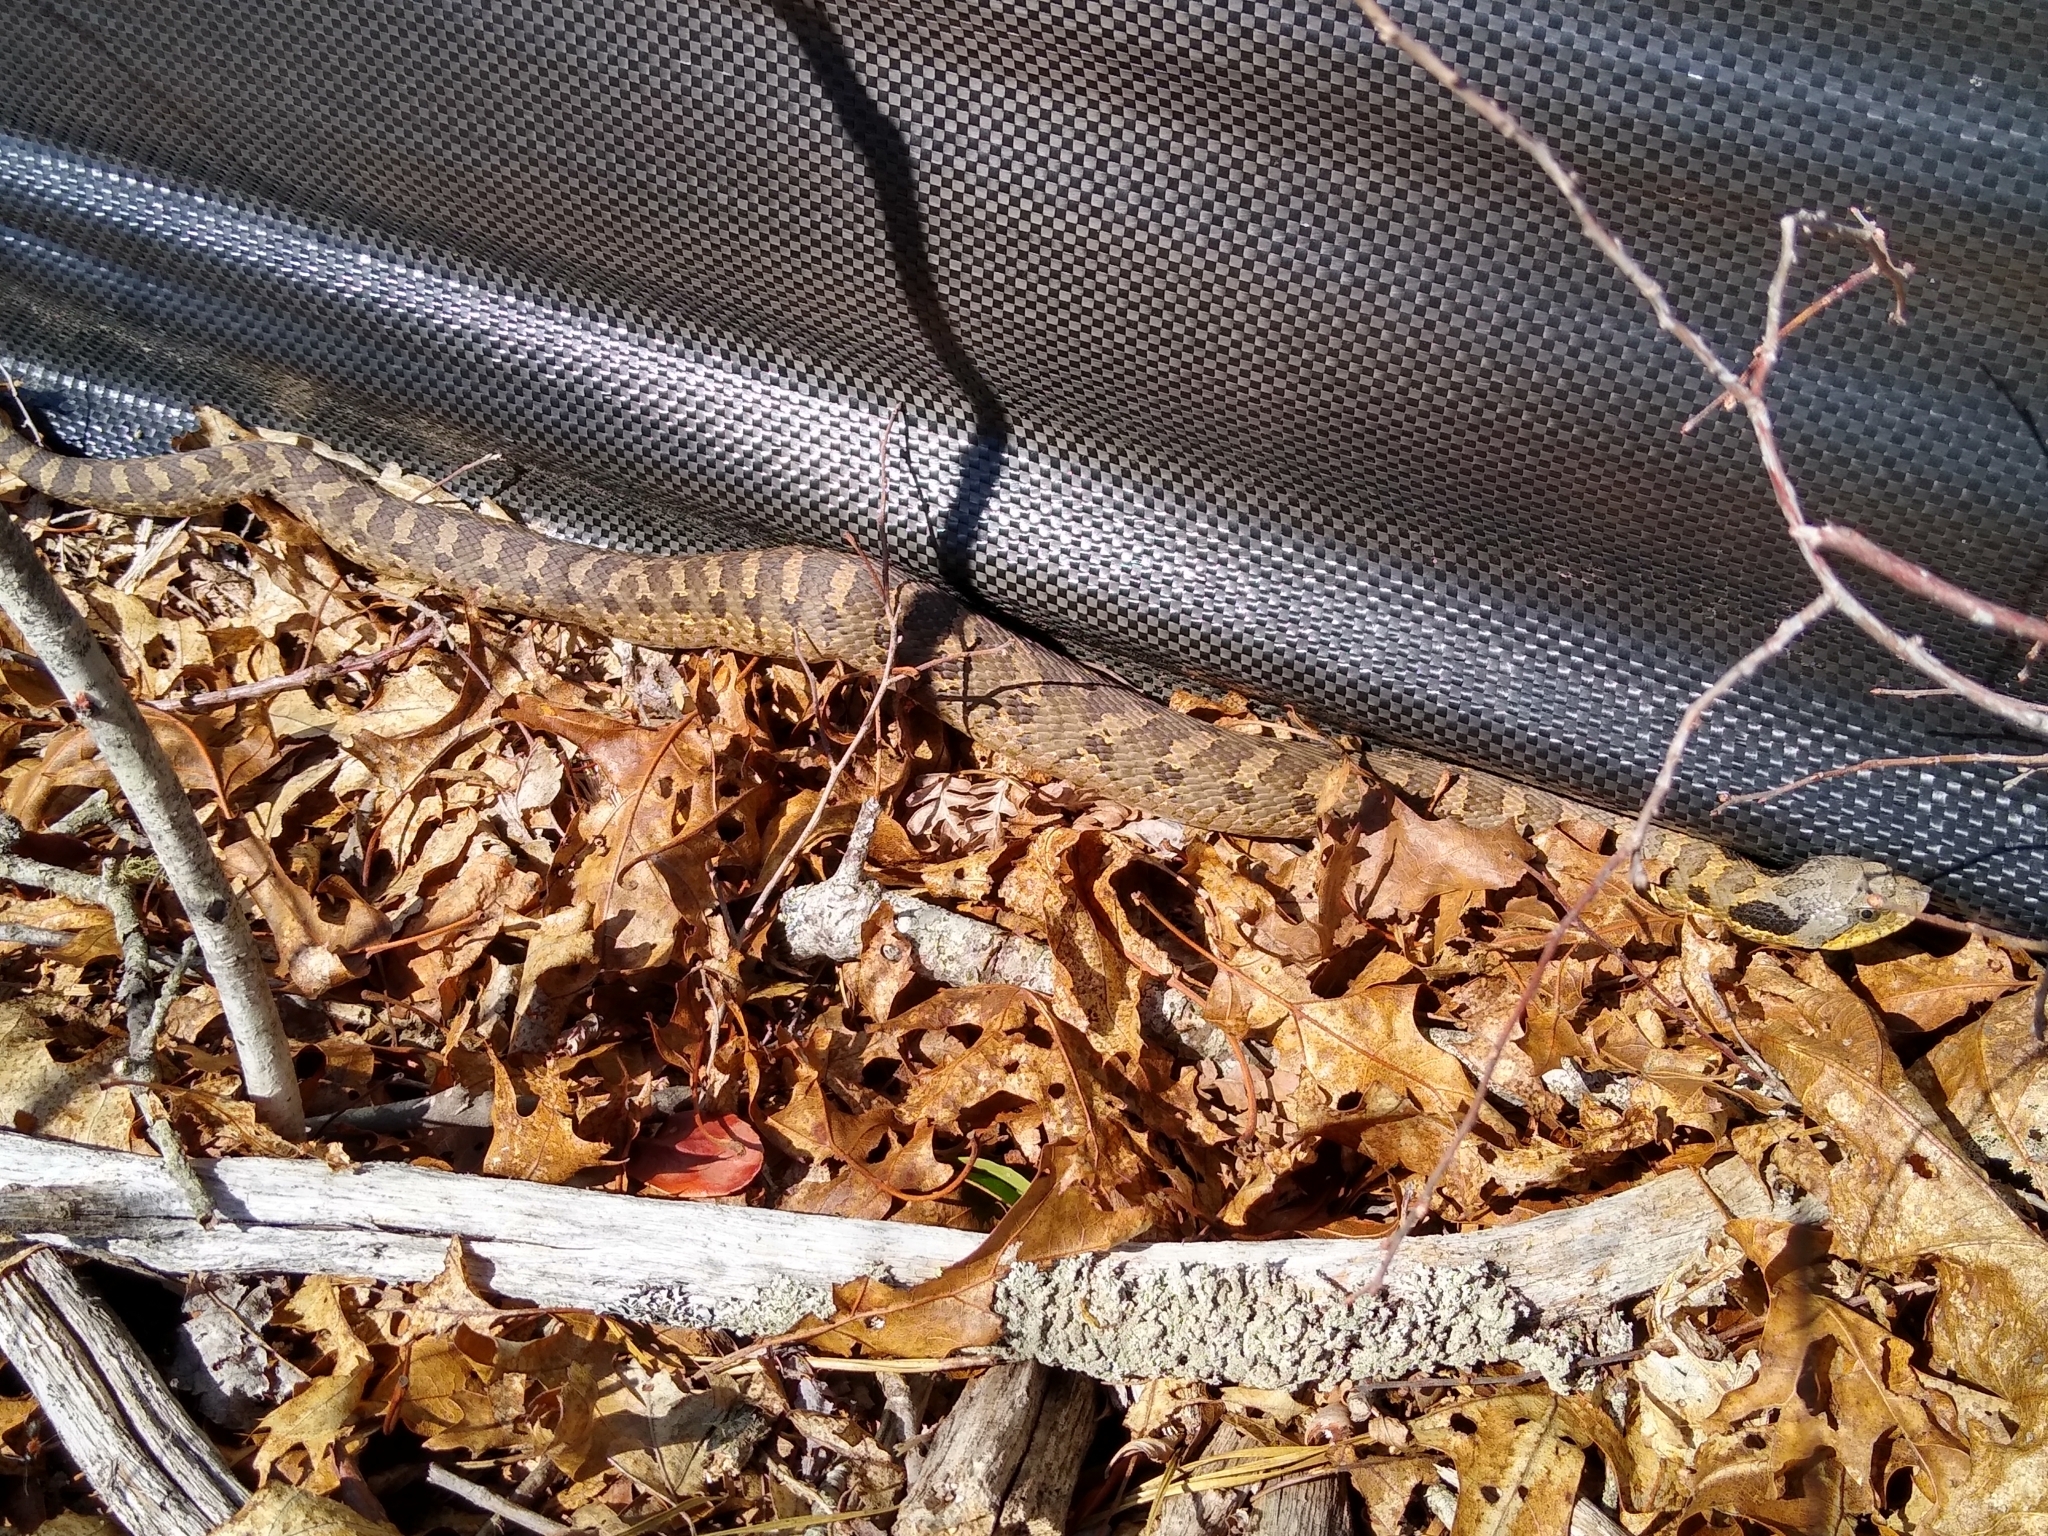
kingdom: Animalia
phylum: Chordata
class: Squamata
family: Colubridae
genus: Heterodon
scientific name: Heterodon platirhinos
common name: Eastern hognose snake
